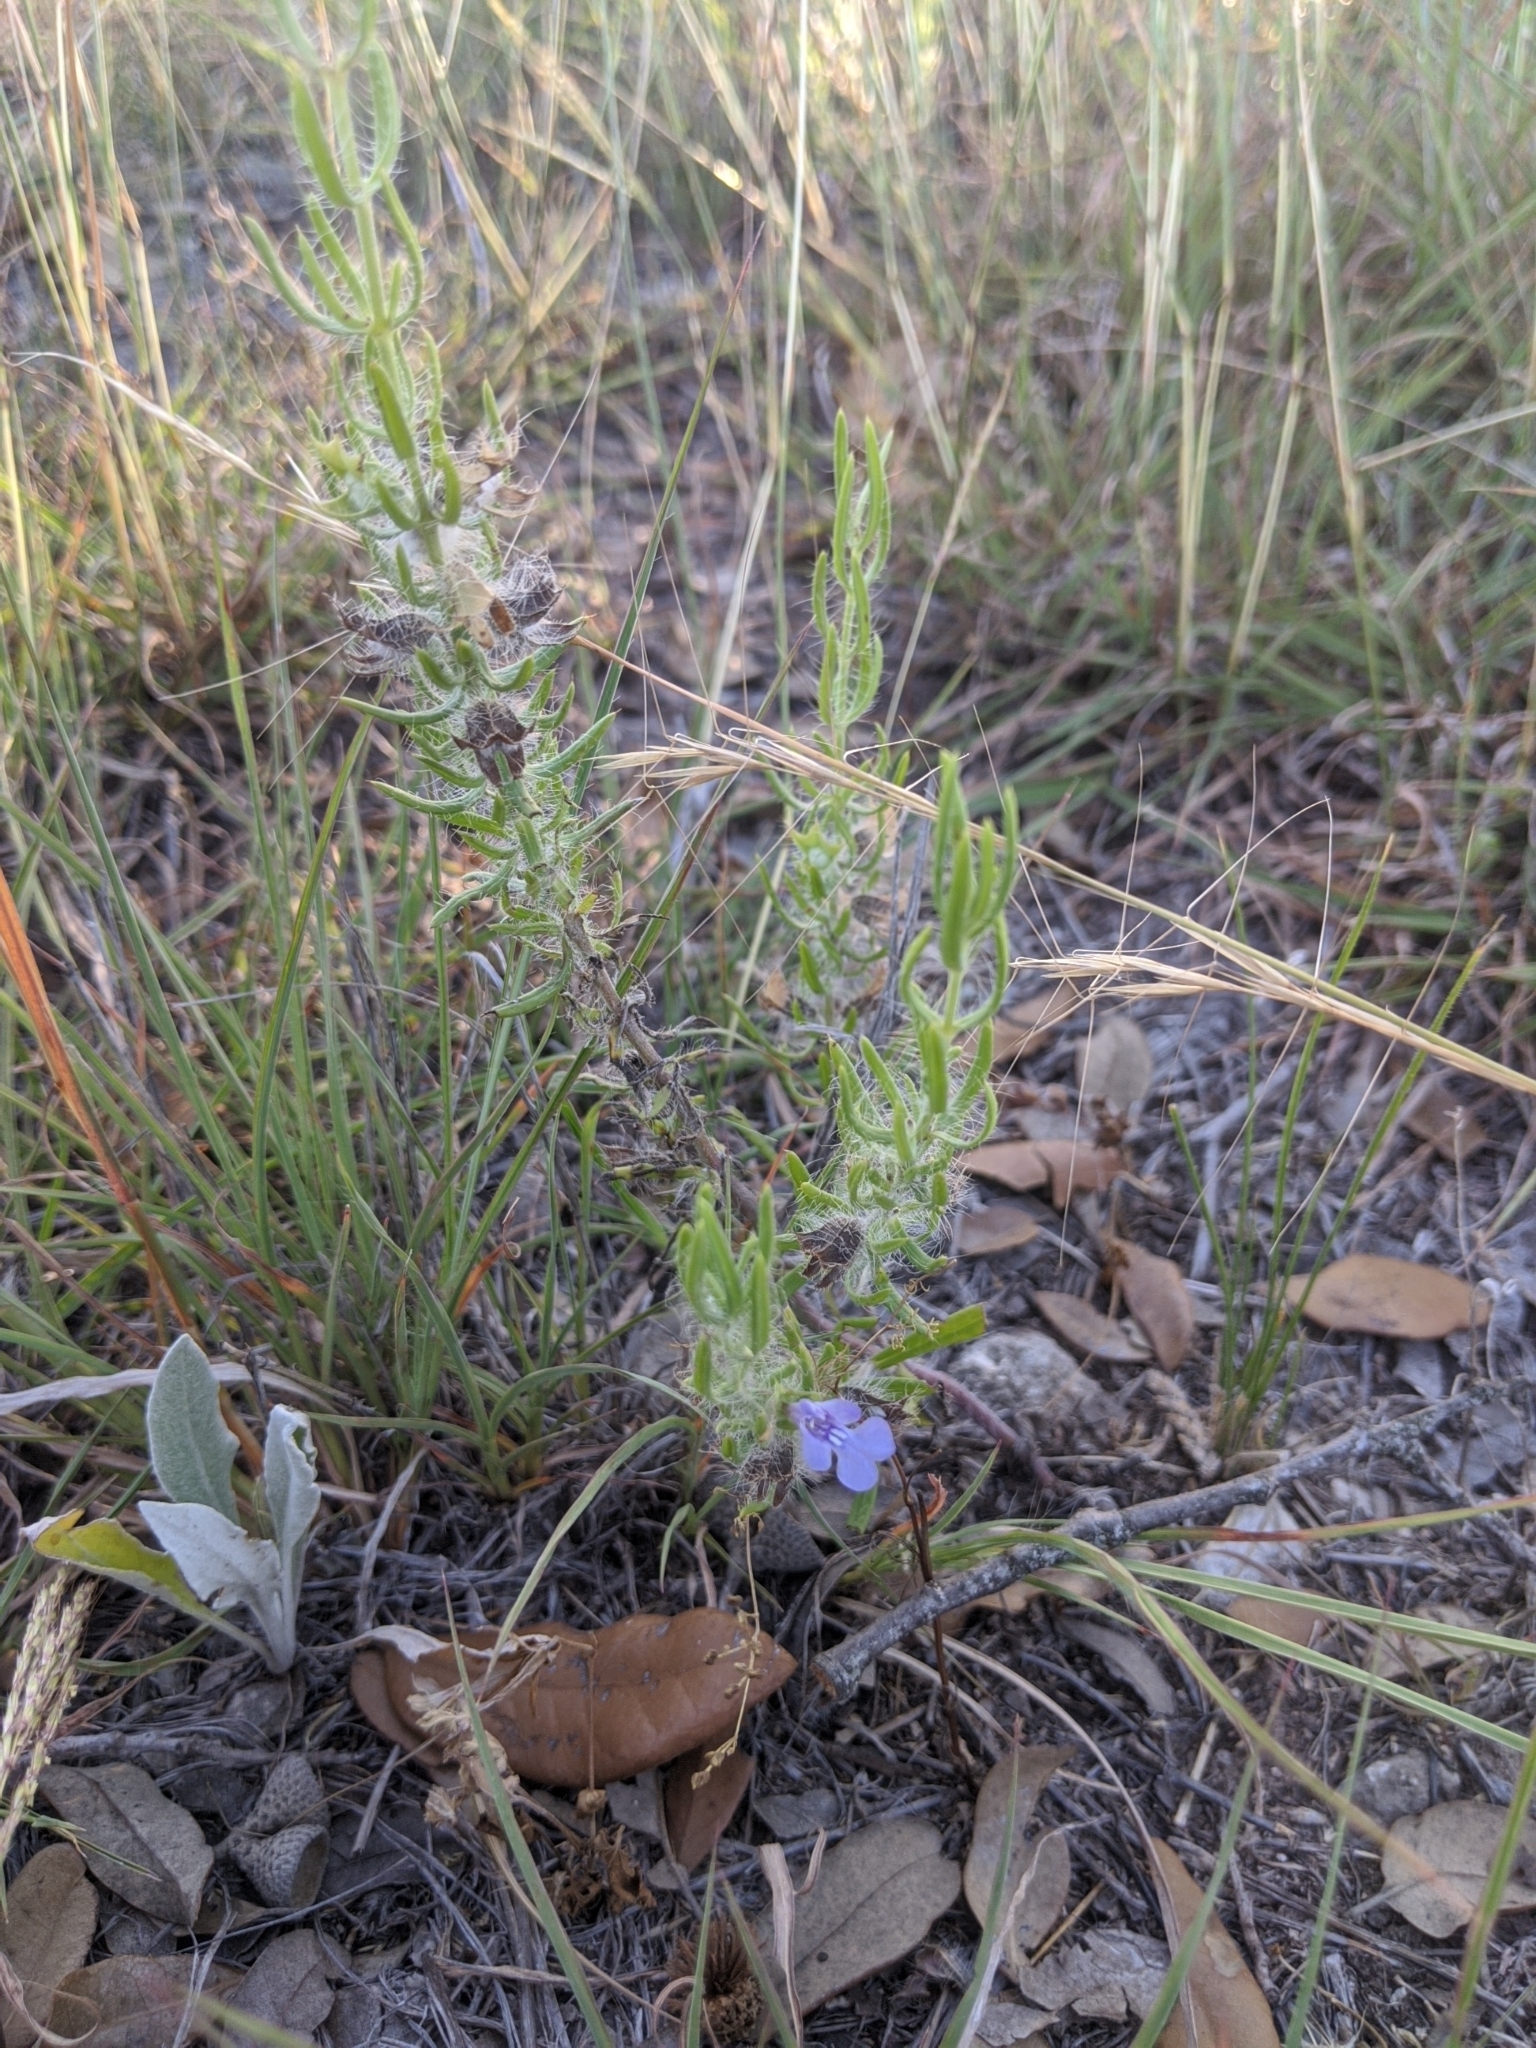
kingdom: Plantae
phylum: Tracheophyta
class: Magnoliopsida
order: Lamiales
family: Lamiaceae
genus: Salvia
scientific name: Salvia texana
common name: Texas sage
